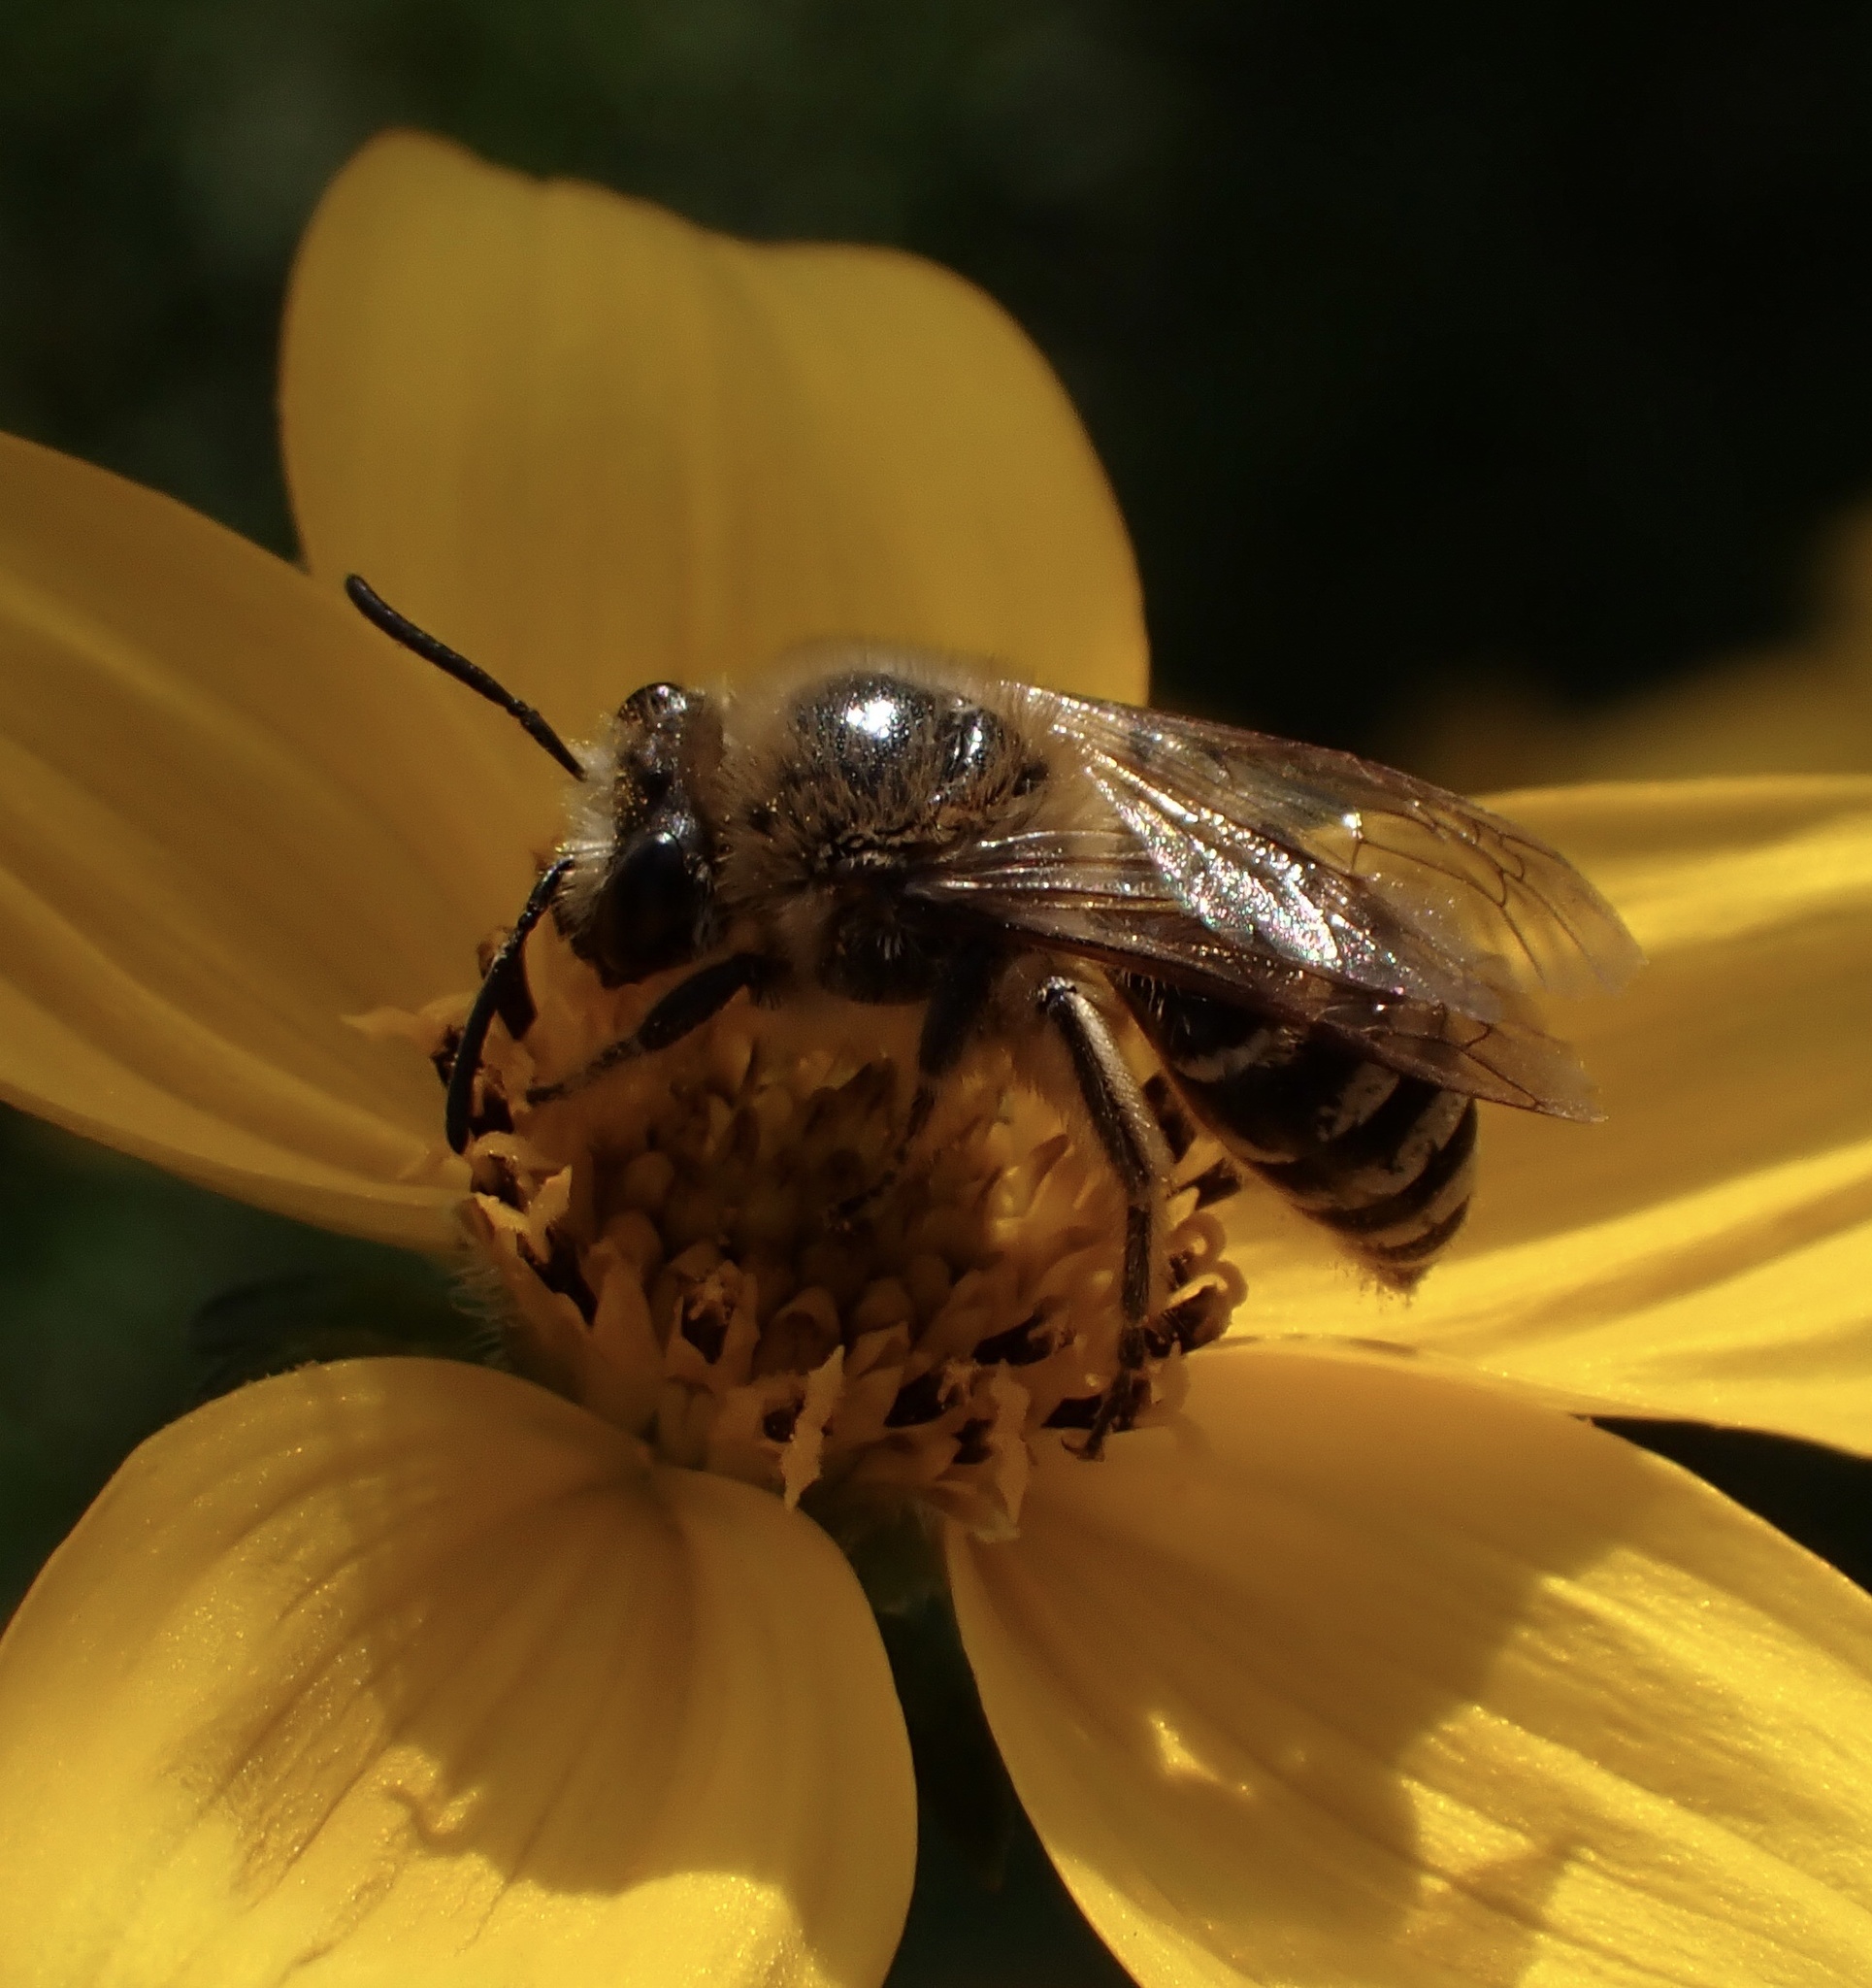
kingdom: Animalia
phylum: Arthropoda
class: Insecta
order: Hymenoptera
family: Colletidae
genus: Colletes
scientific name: Colletes hederae
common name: Ivy bee
